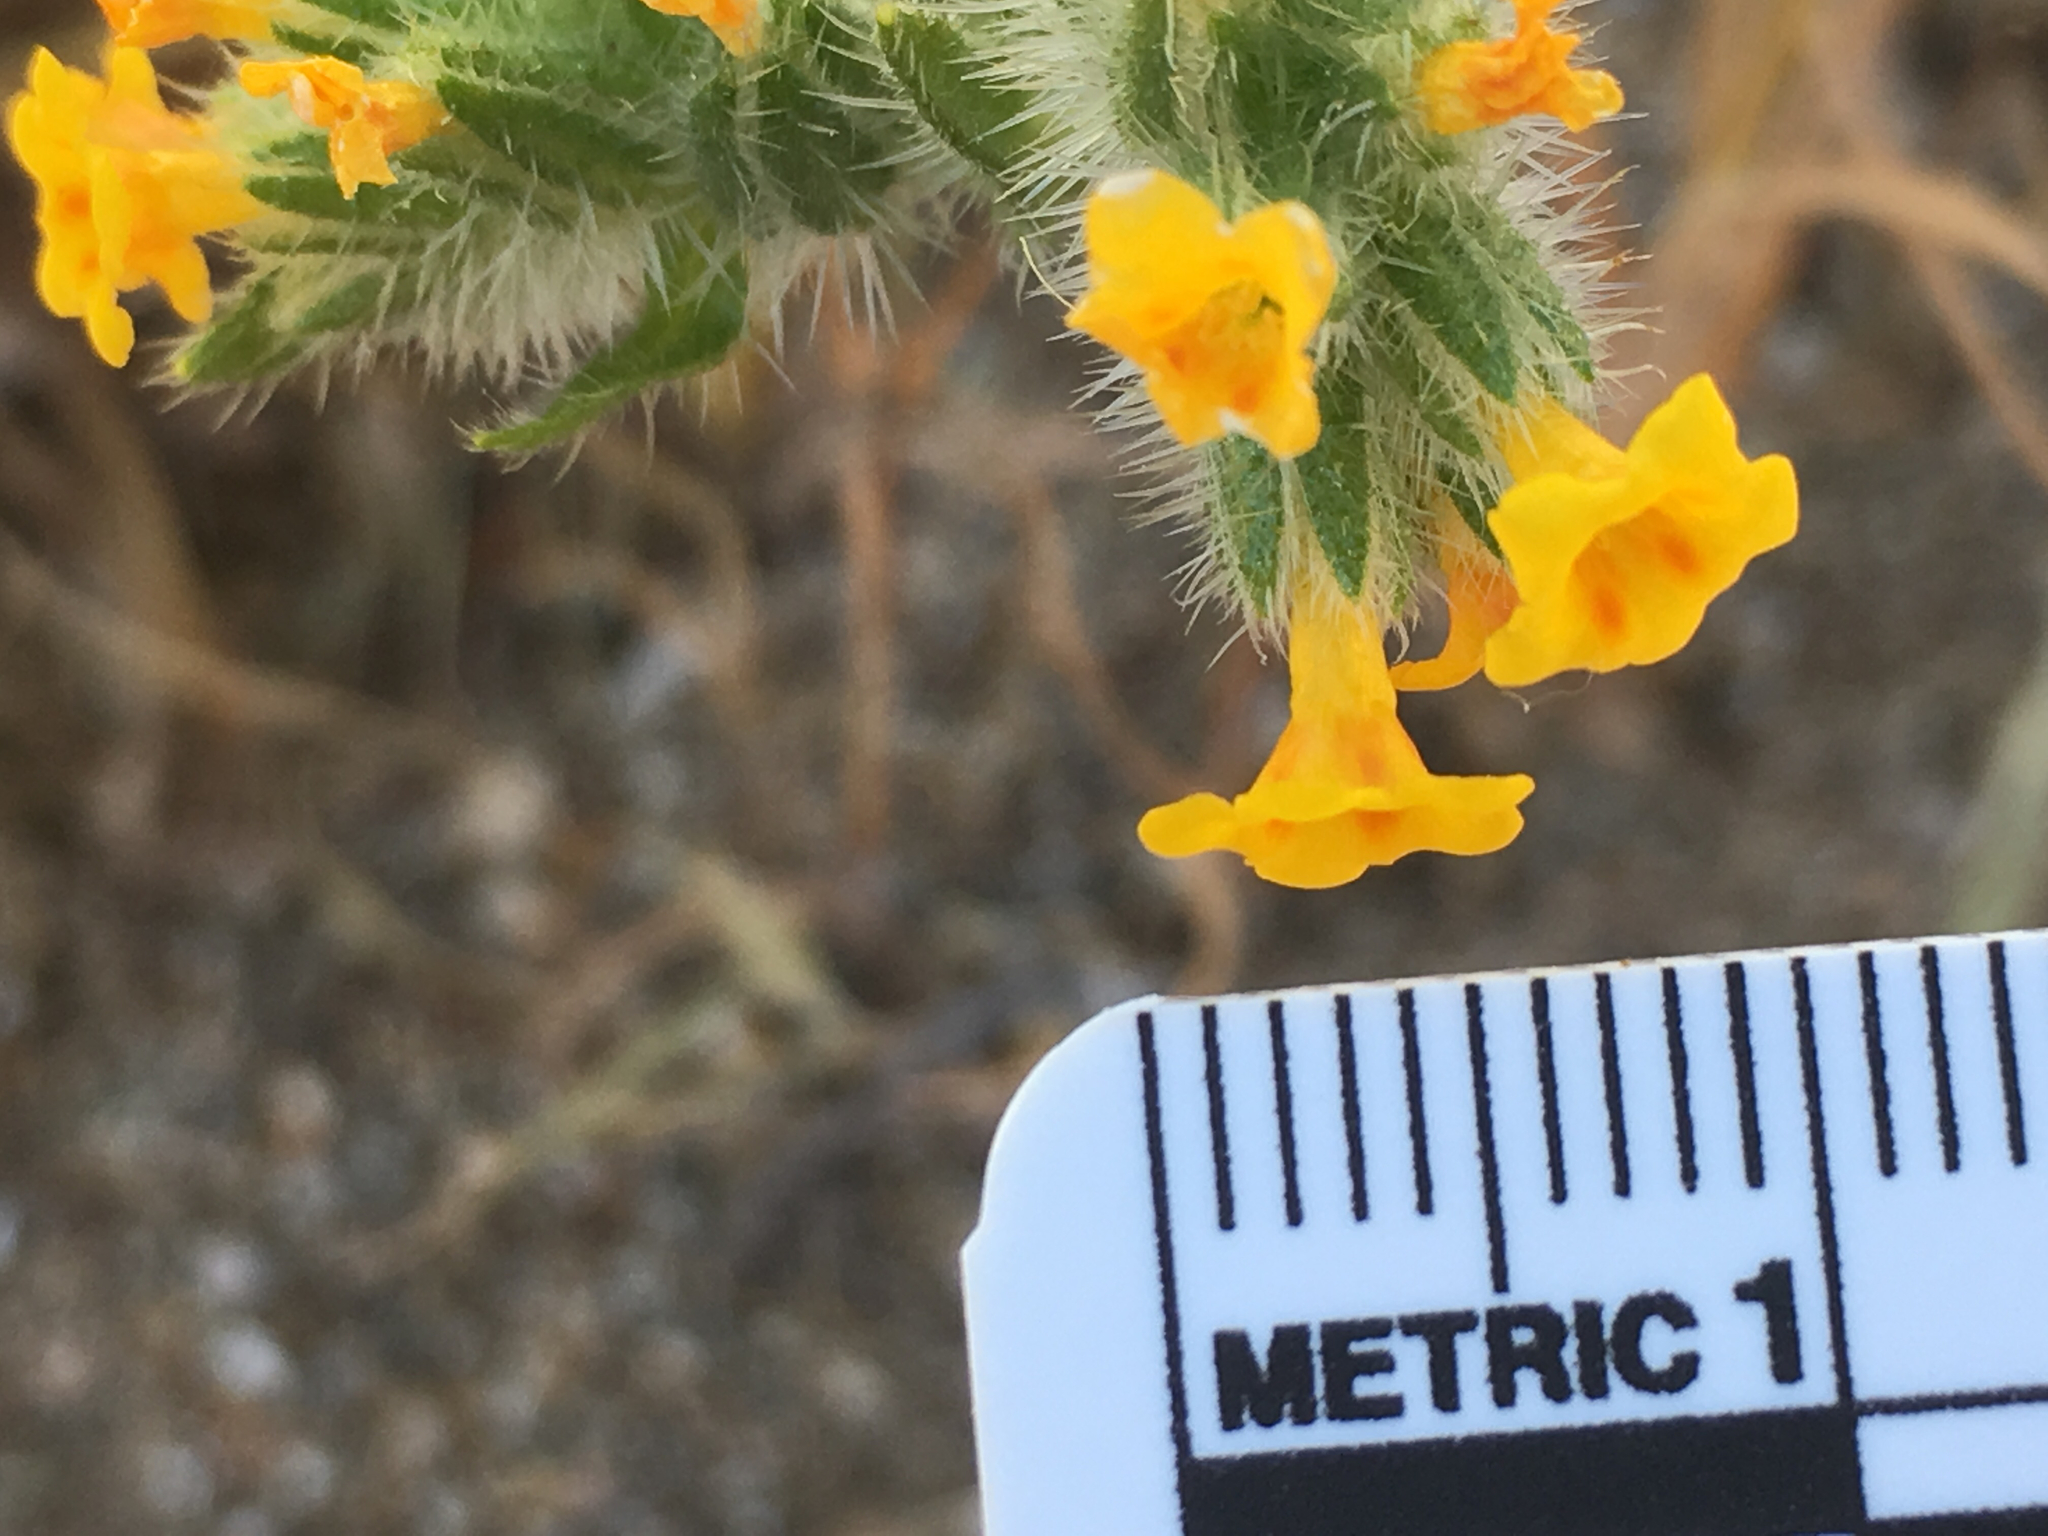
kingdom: Plantae
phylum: Tracheophyta
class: Magnoliopsida
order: Boraginales
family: Boraginaceae
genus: Amsinckia
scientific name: Amsinckia menziesii
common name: Menzies' fiddleneck
